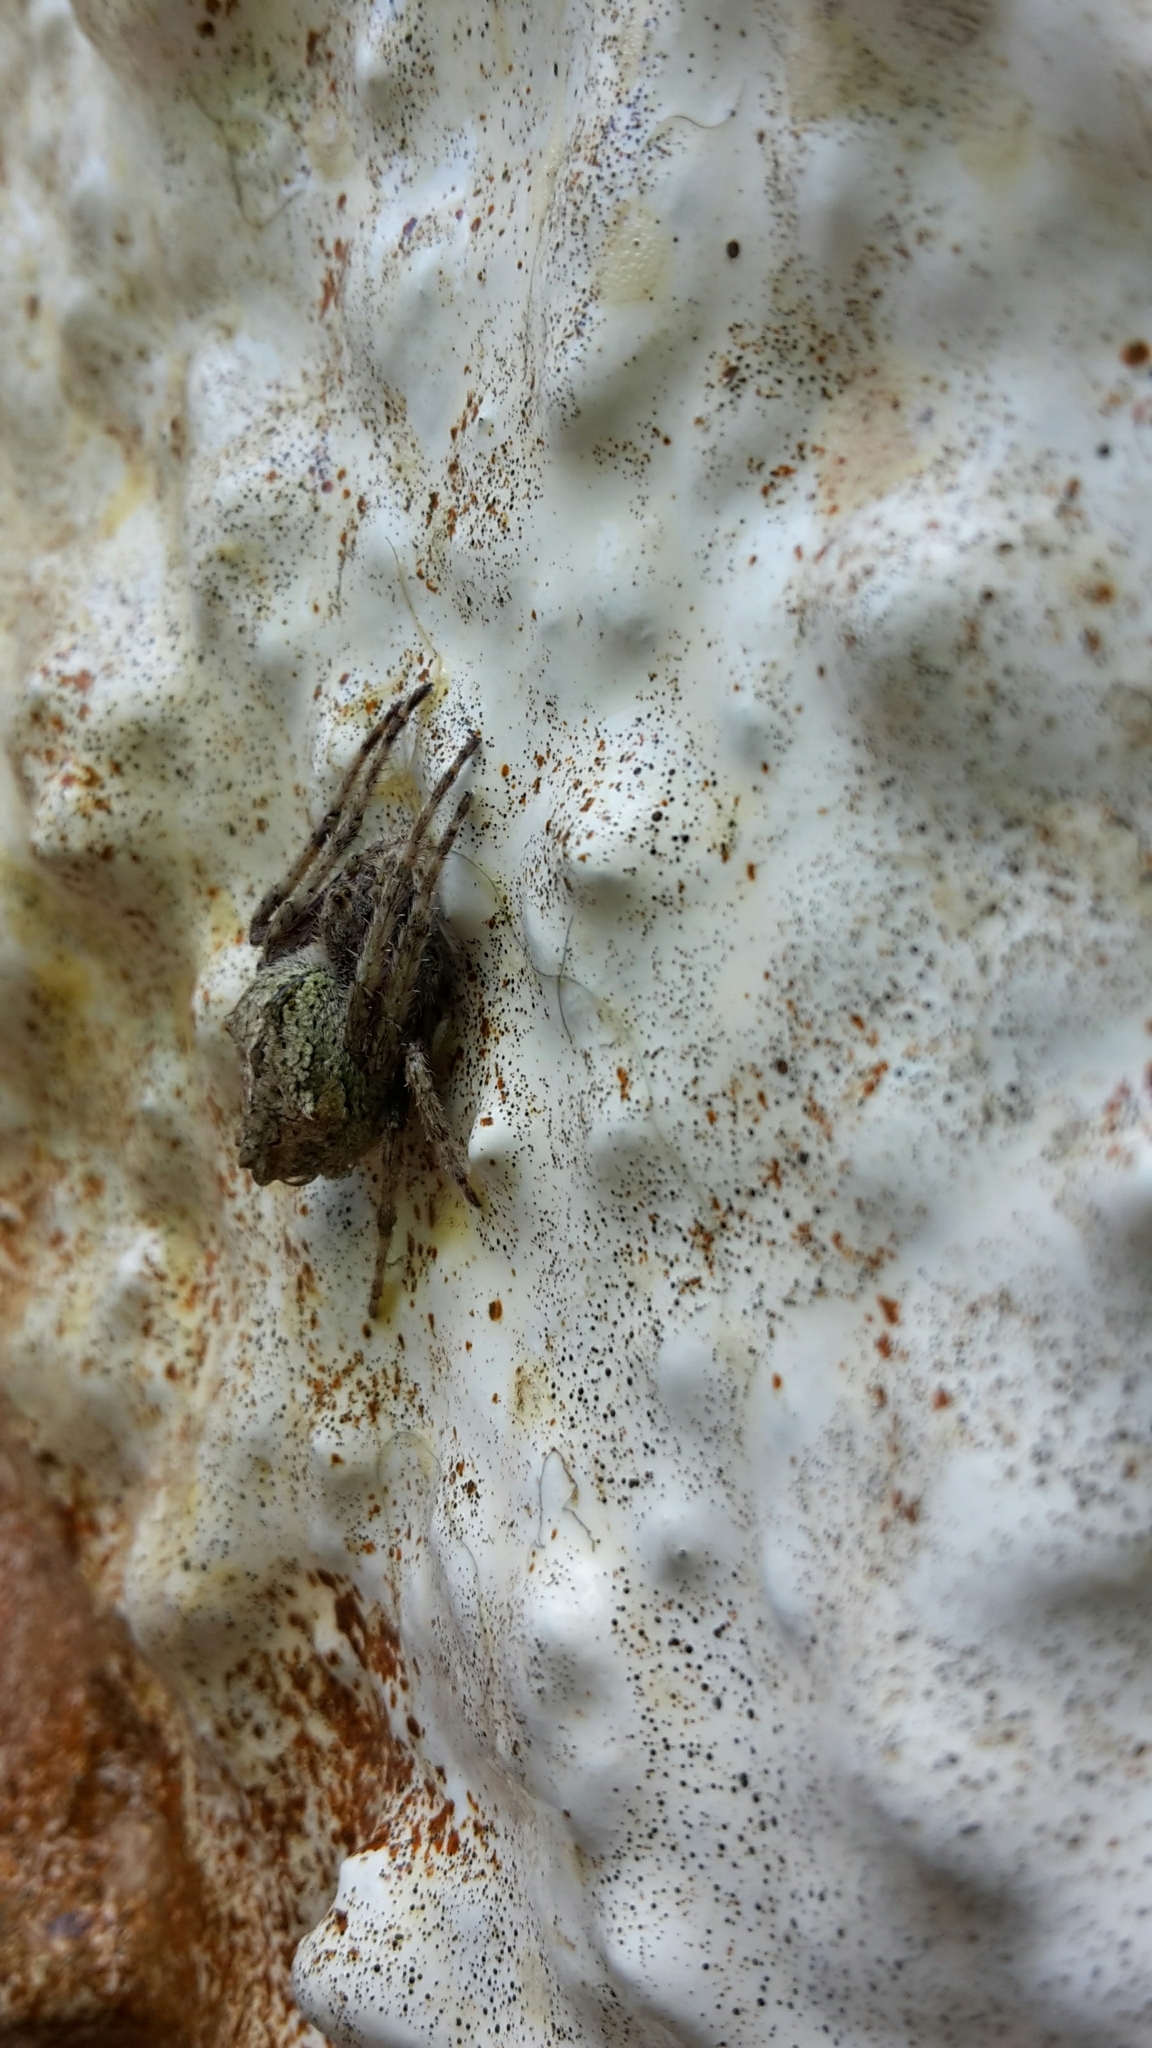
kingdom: Animalia
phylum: Arthropoda
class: Arachnida
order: Araneae
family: Araneidae
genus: Eriophora
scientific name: Eriophora pustulosa
